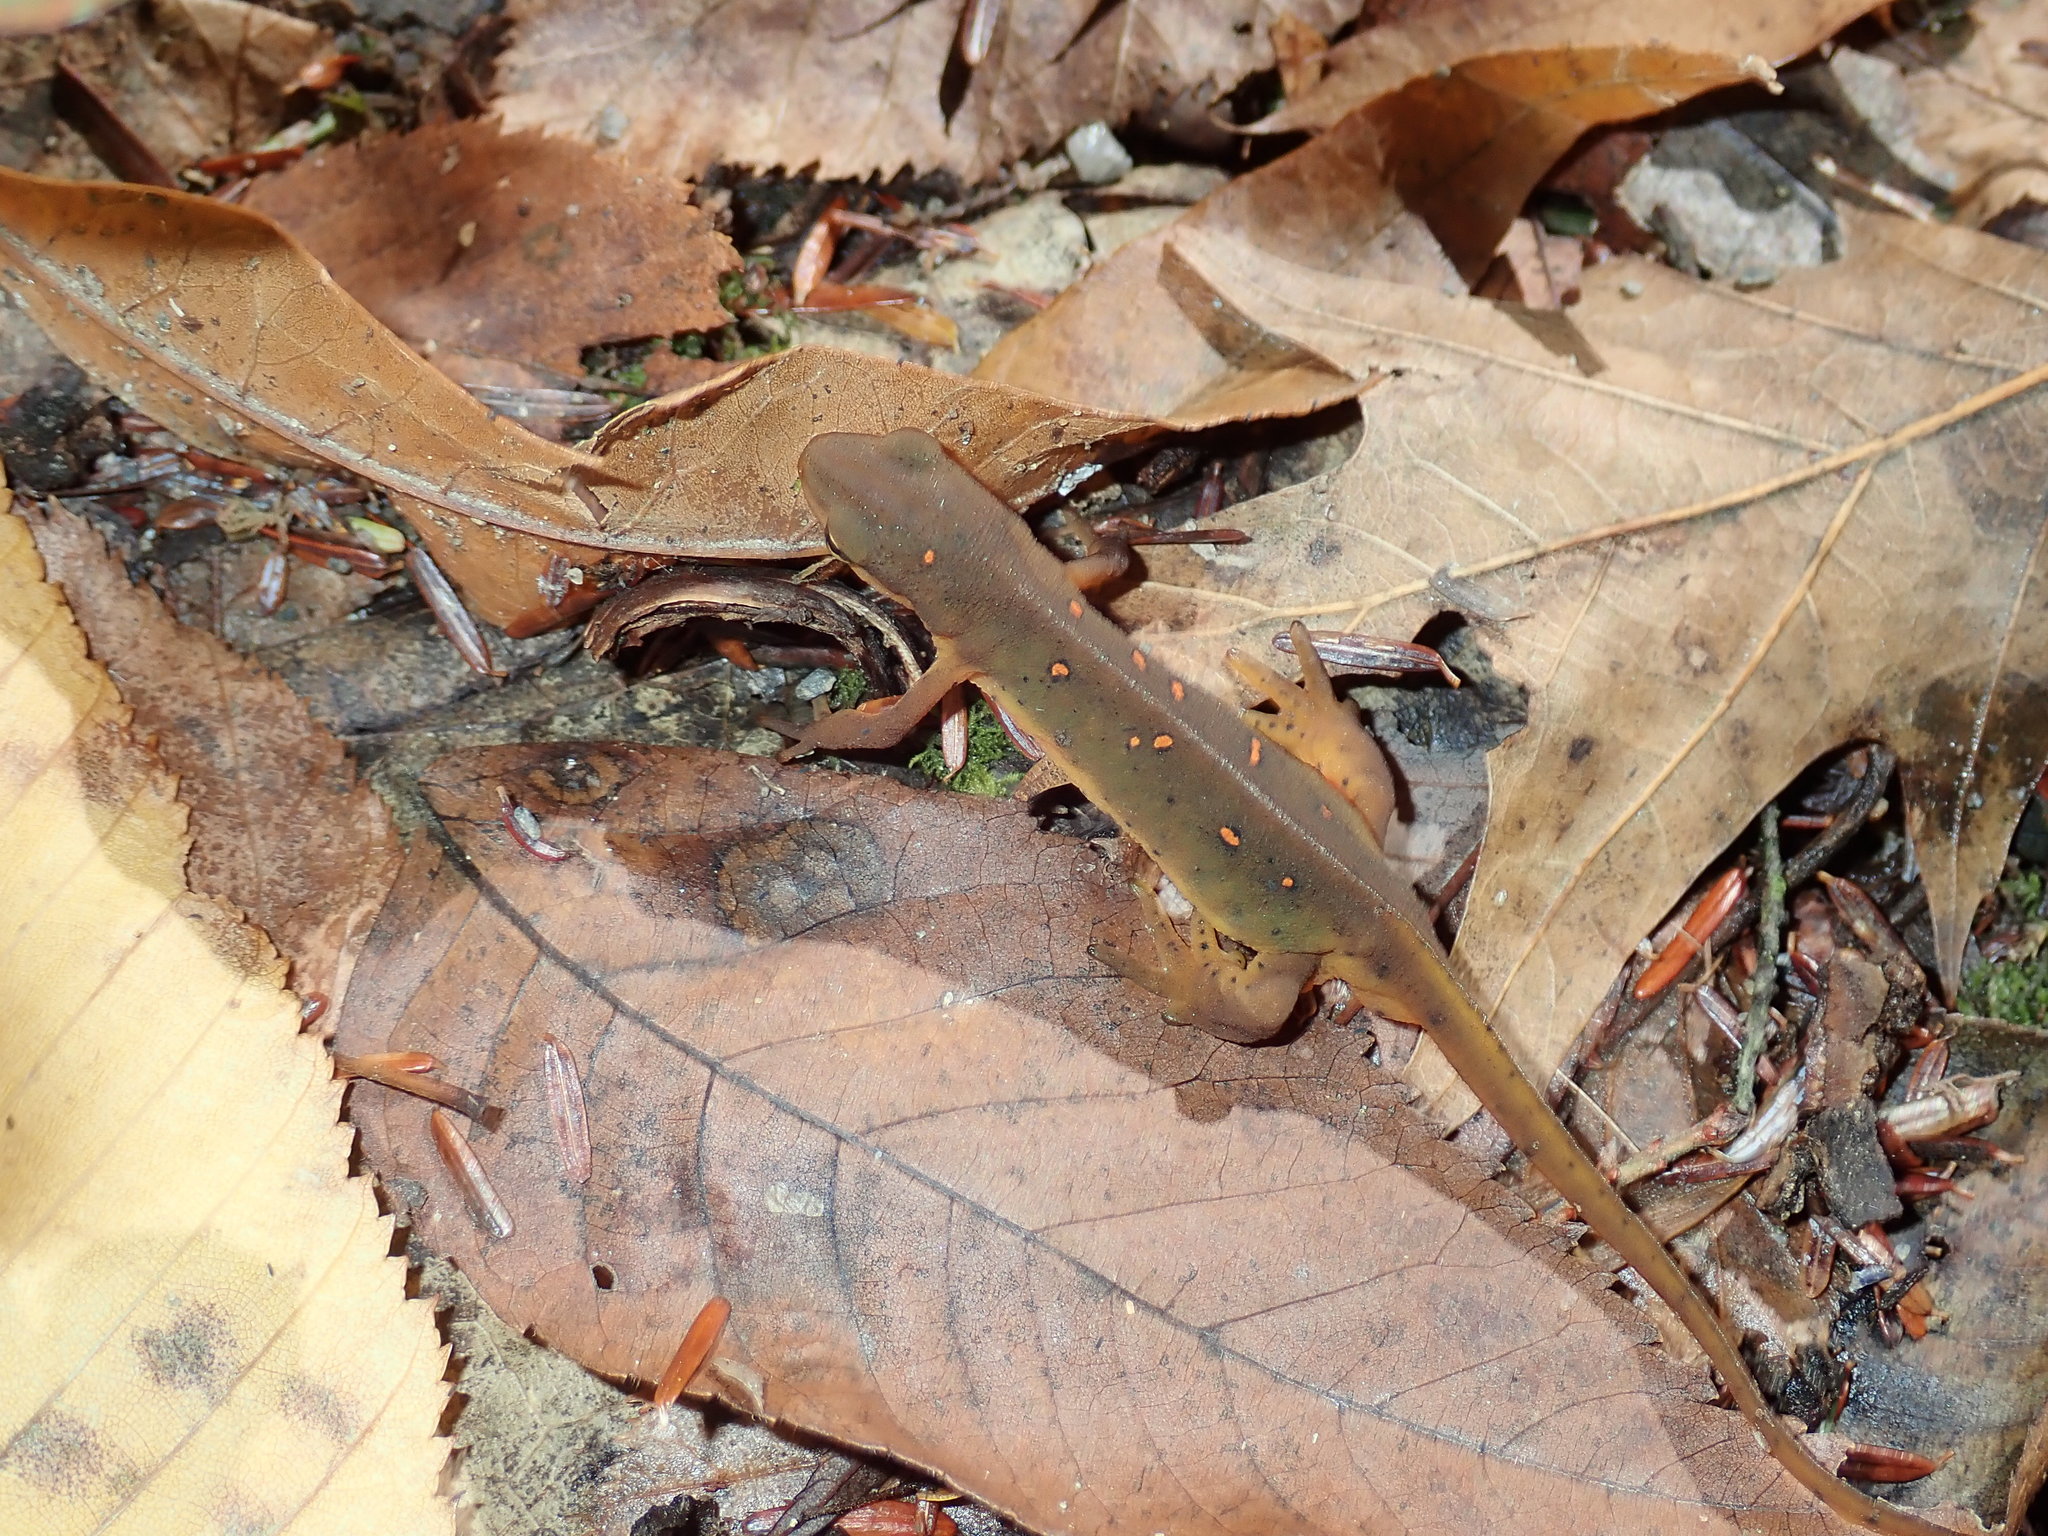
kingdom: Animalia
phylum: Chordata
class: Amphibia
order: Caudata
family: Salamandridae
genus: Notophthalmus
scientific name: Notophthalmus viridescens
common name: Eastern newt
